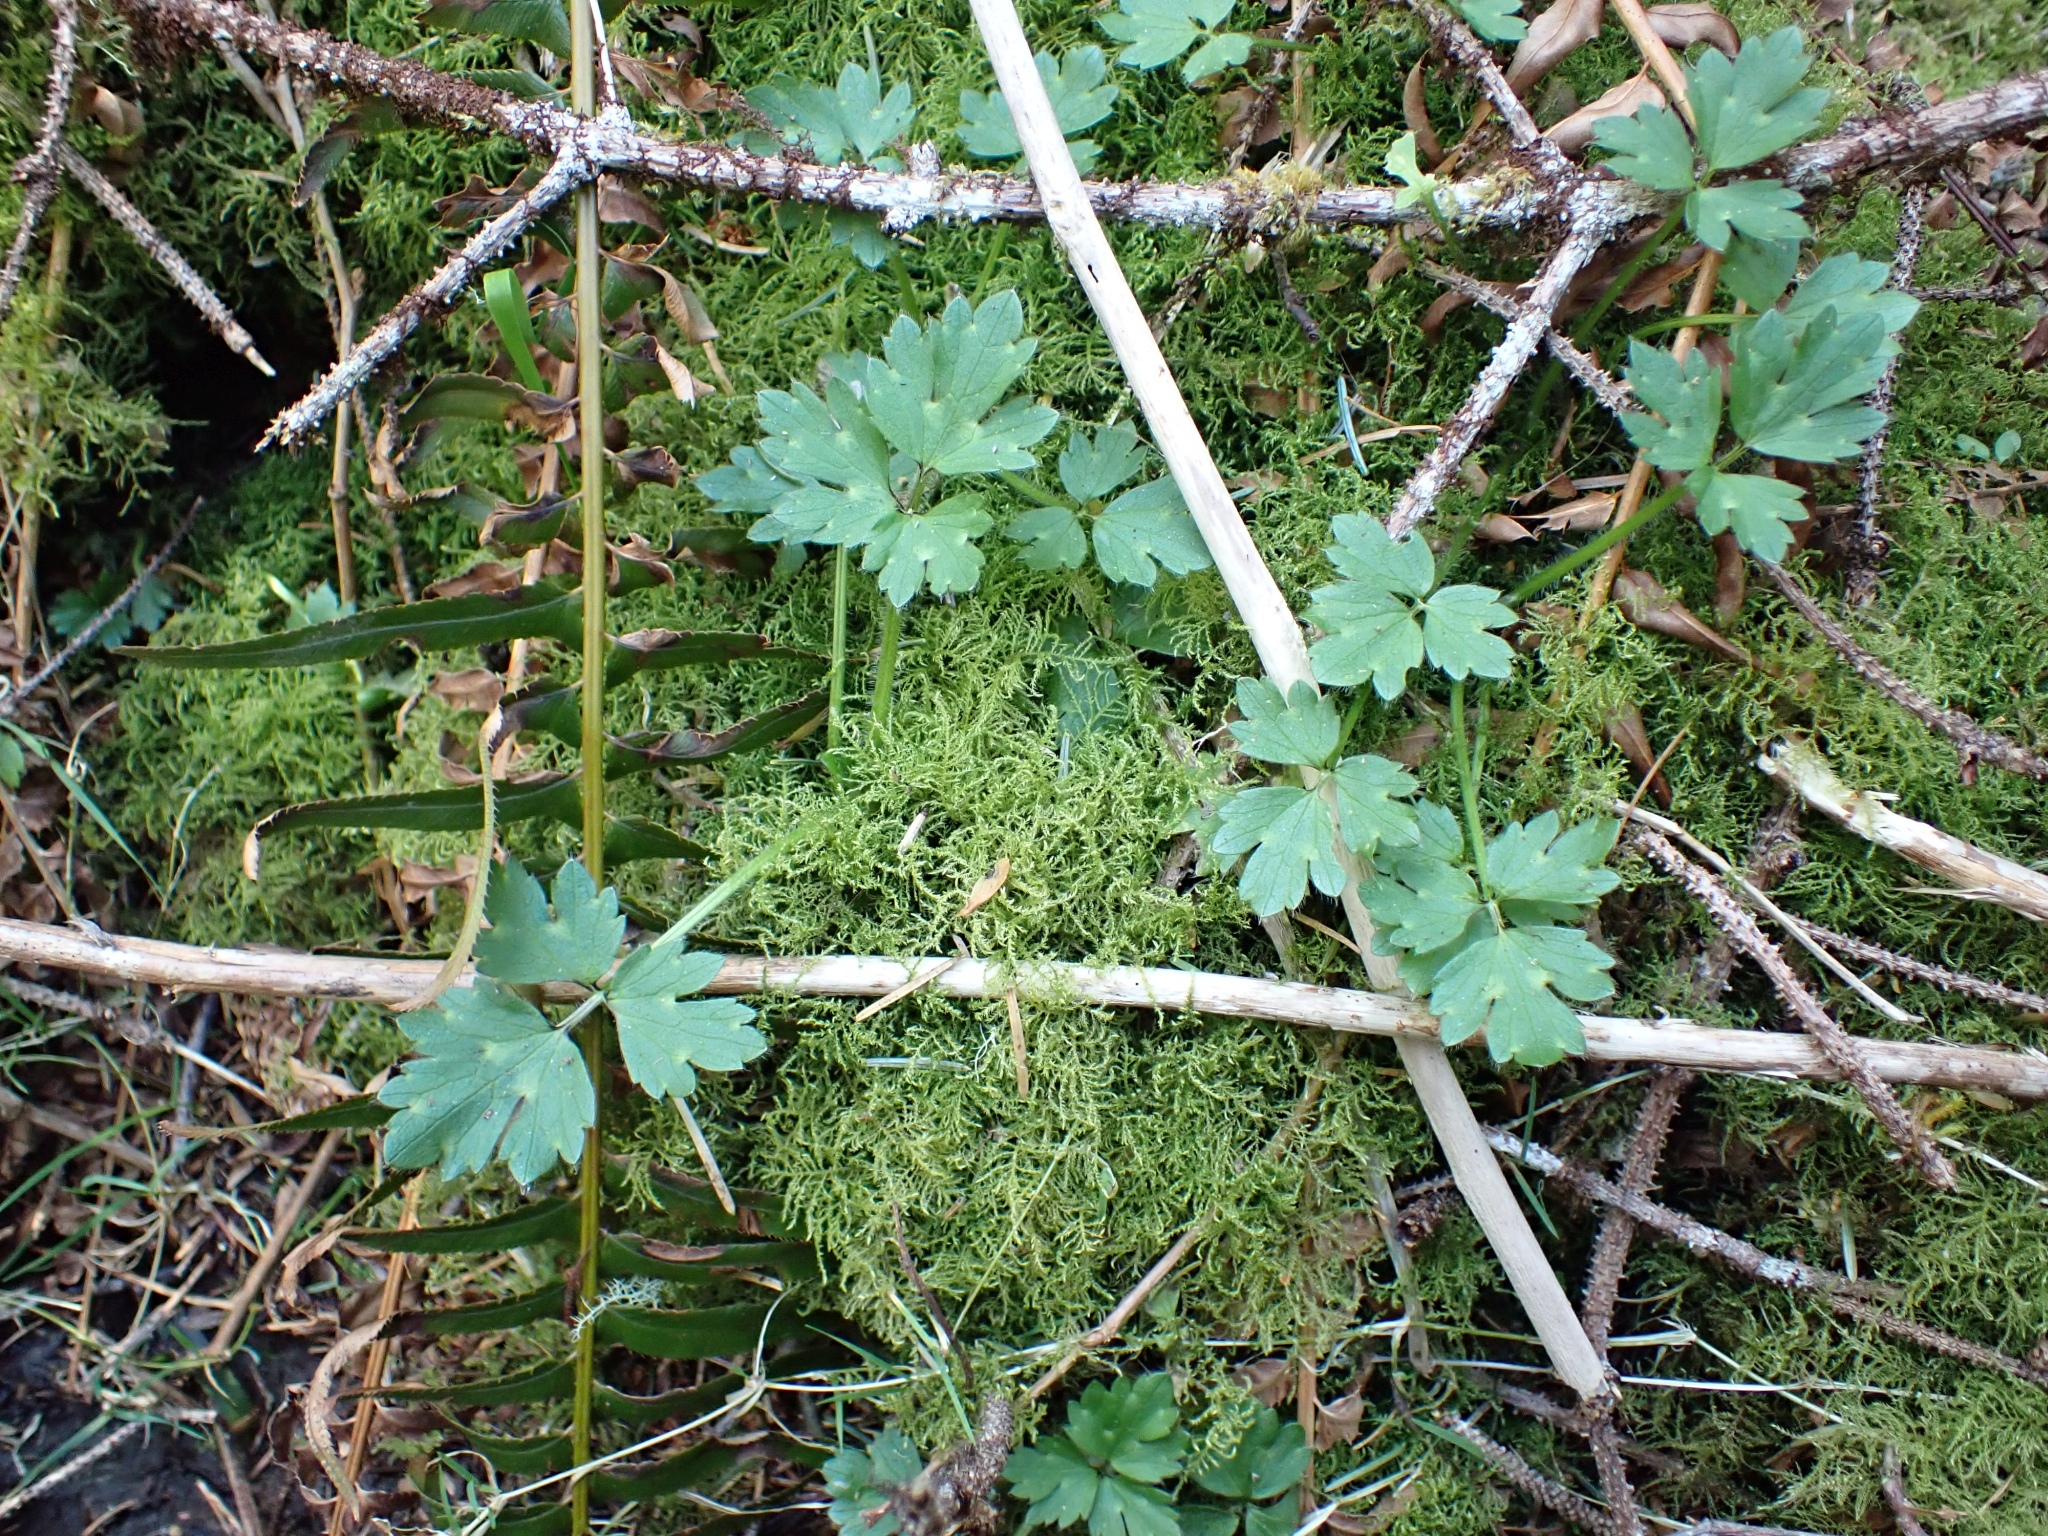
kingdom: Plantae
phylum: Tracheophyta
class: Magnoliopsida
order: Ranunculales
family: Ranunculaceae
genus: Ranunculus
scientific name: Ranunculus repens
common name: Creeping buttercup
